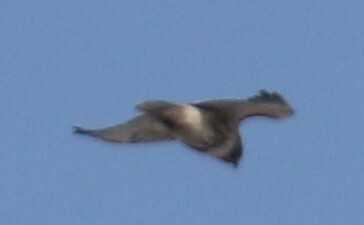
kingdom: Animalia
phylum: Chordata
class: Aves
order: Accipitriformes
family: Accipitridae
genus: Buteo
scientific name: Buteo jamaicensis
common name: Red-tailed hawk
